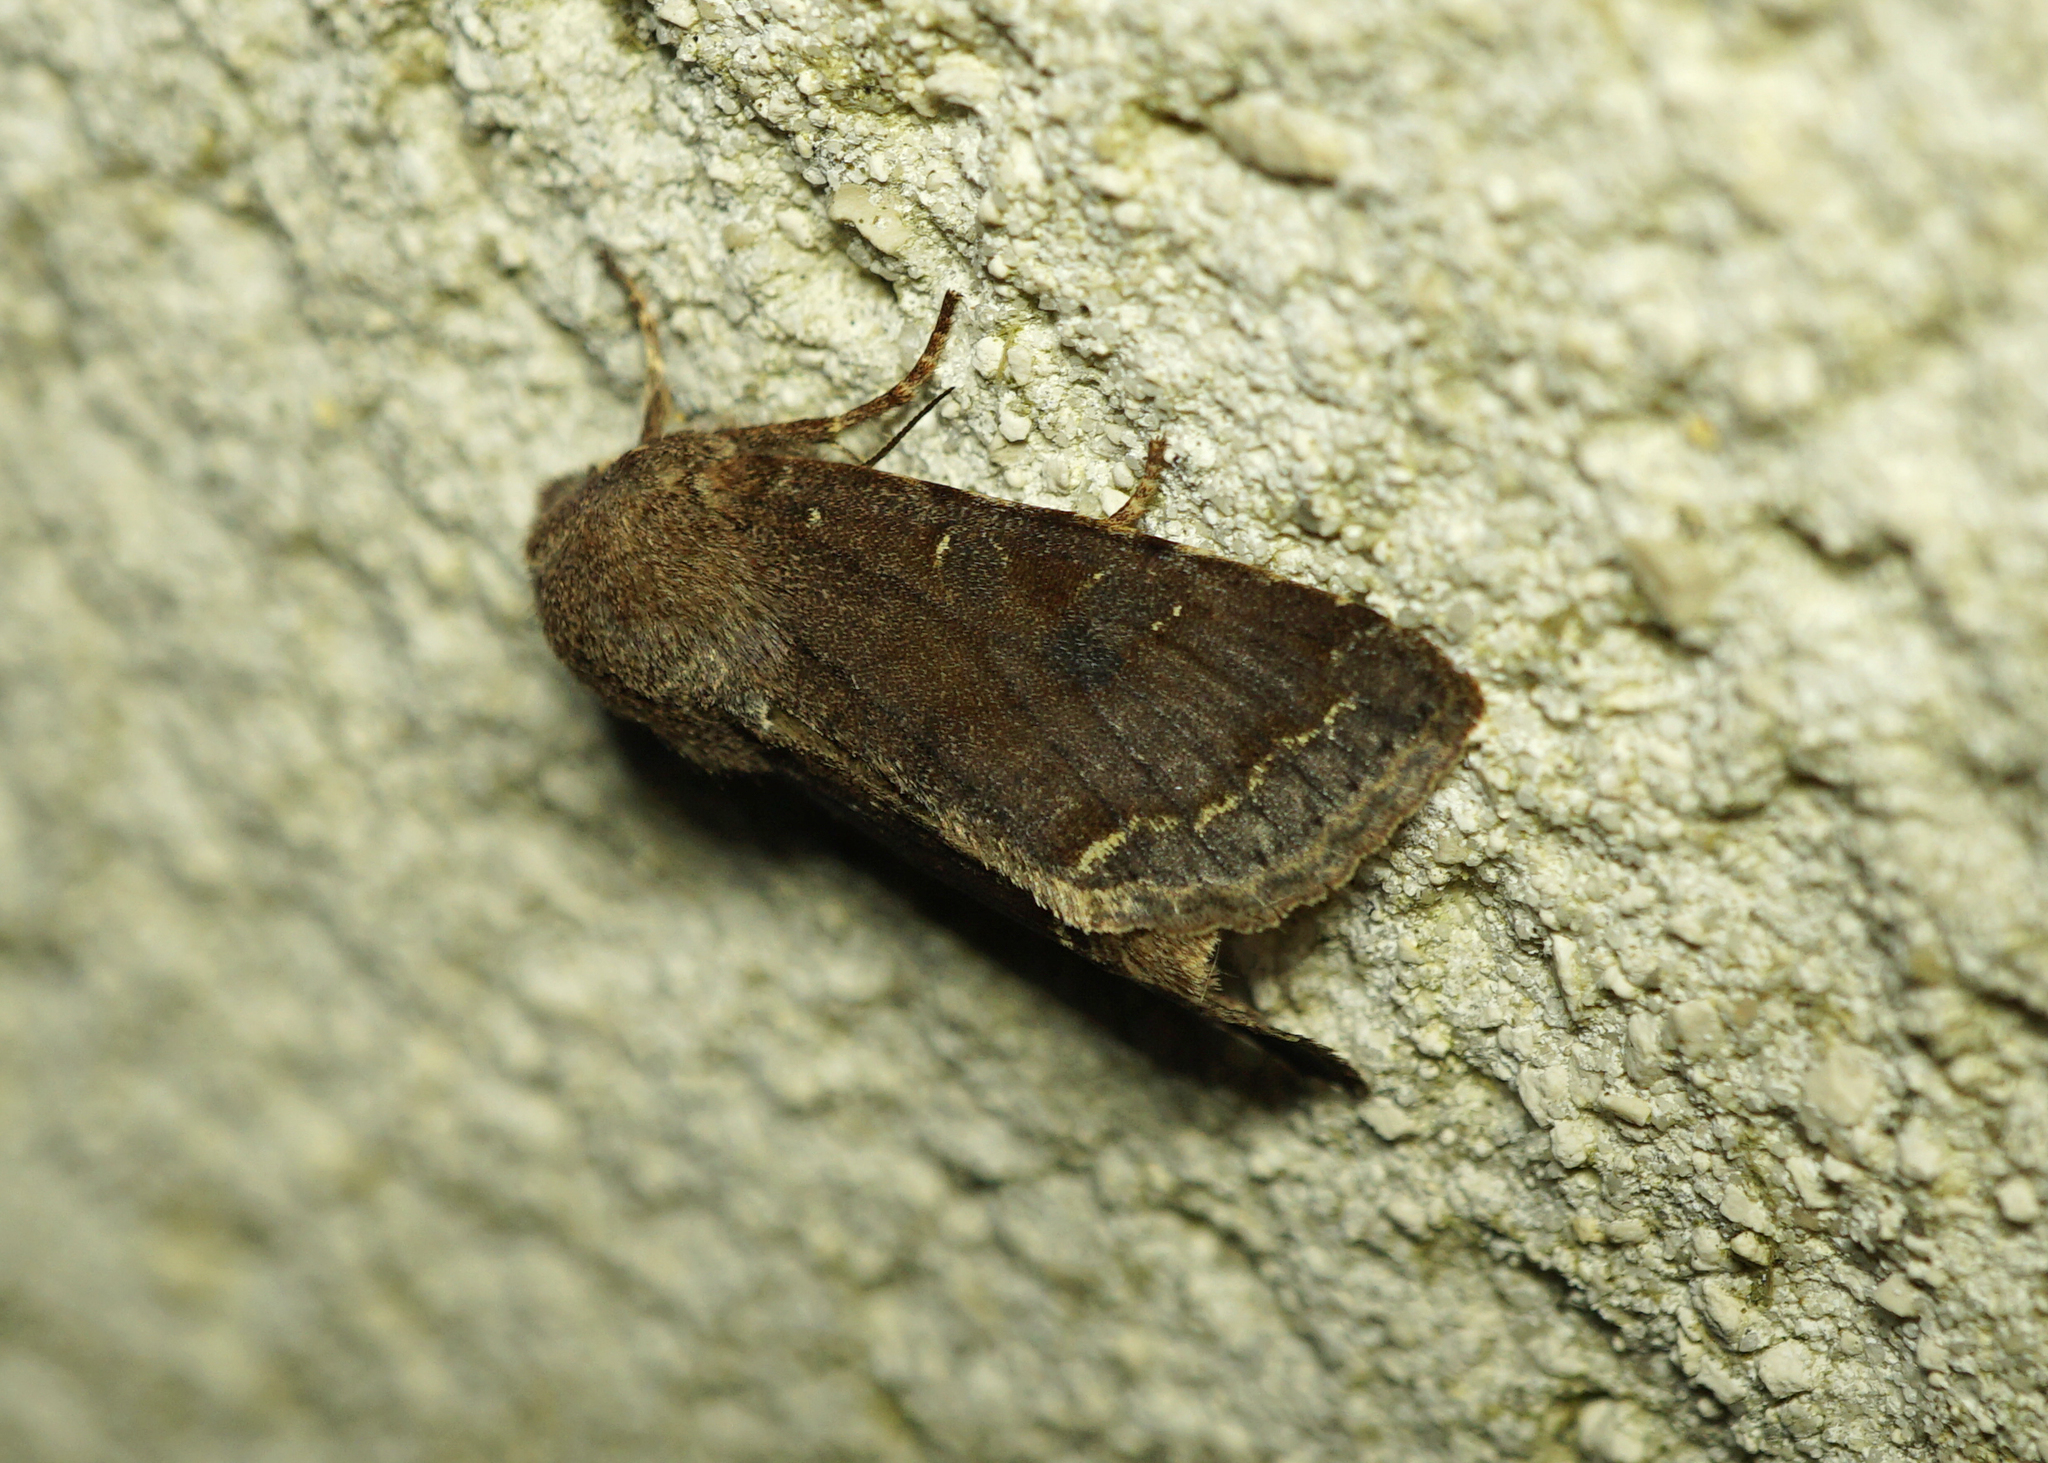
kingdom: Animalia
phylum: Arthropoda
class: Insecta
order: Lepidoptera
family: Noctuidae
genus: Orthosia
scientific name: Orthosia incerta
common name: Clouded drab
